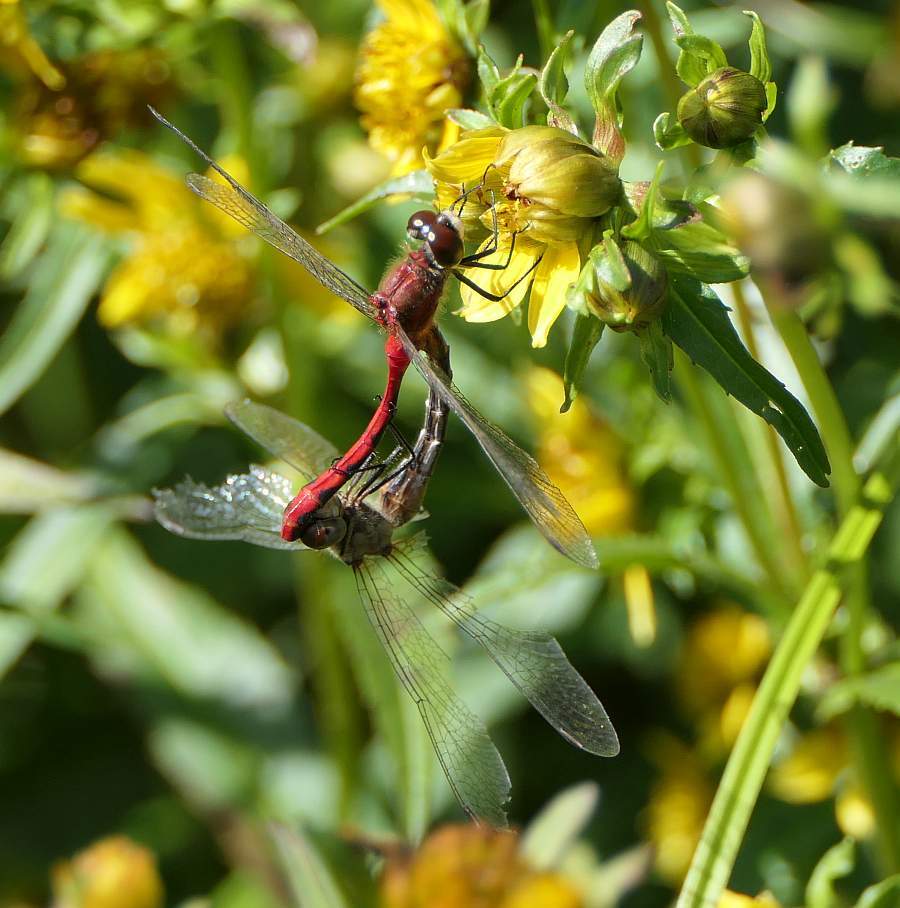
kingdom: Animalia
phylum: Arthropoda
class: Insecta
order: Odonata
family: Libellulidae
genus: Sympetrum
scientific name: Sympetrum obtrusum
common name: White-faced meadowhawk
